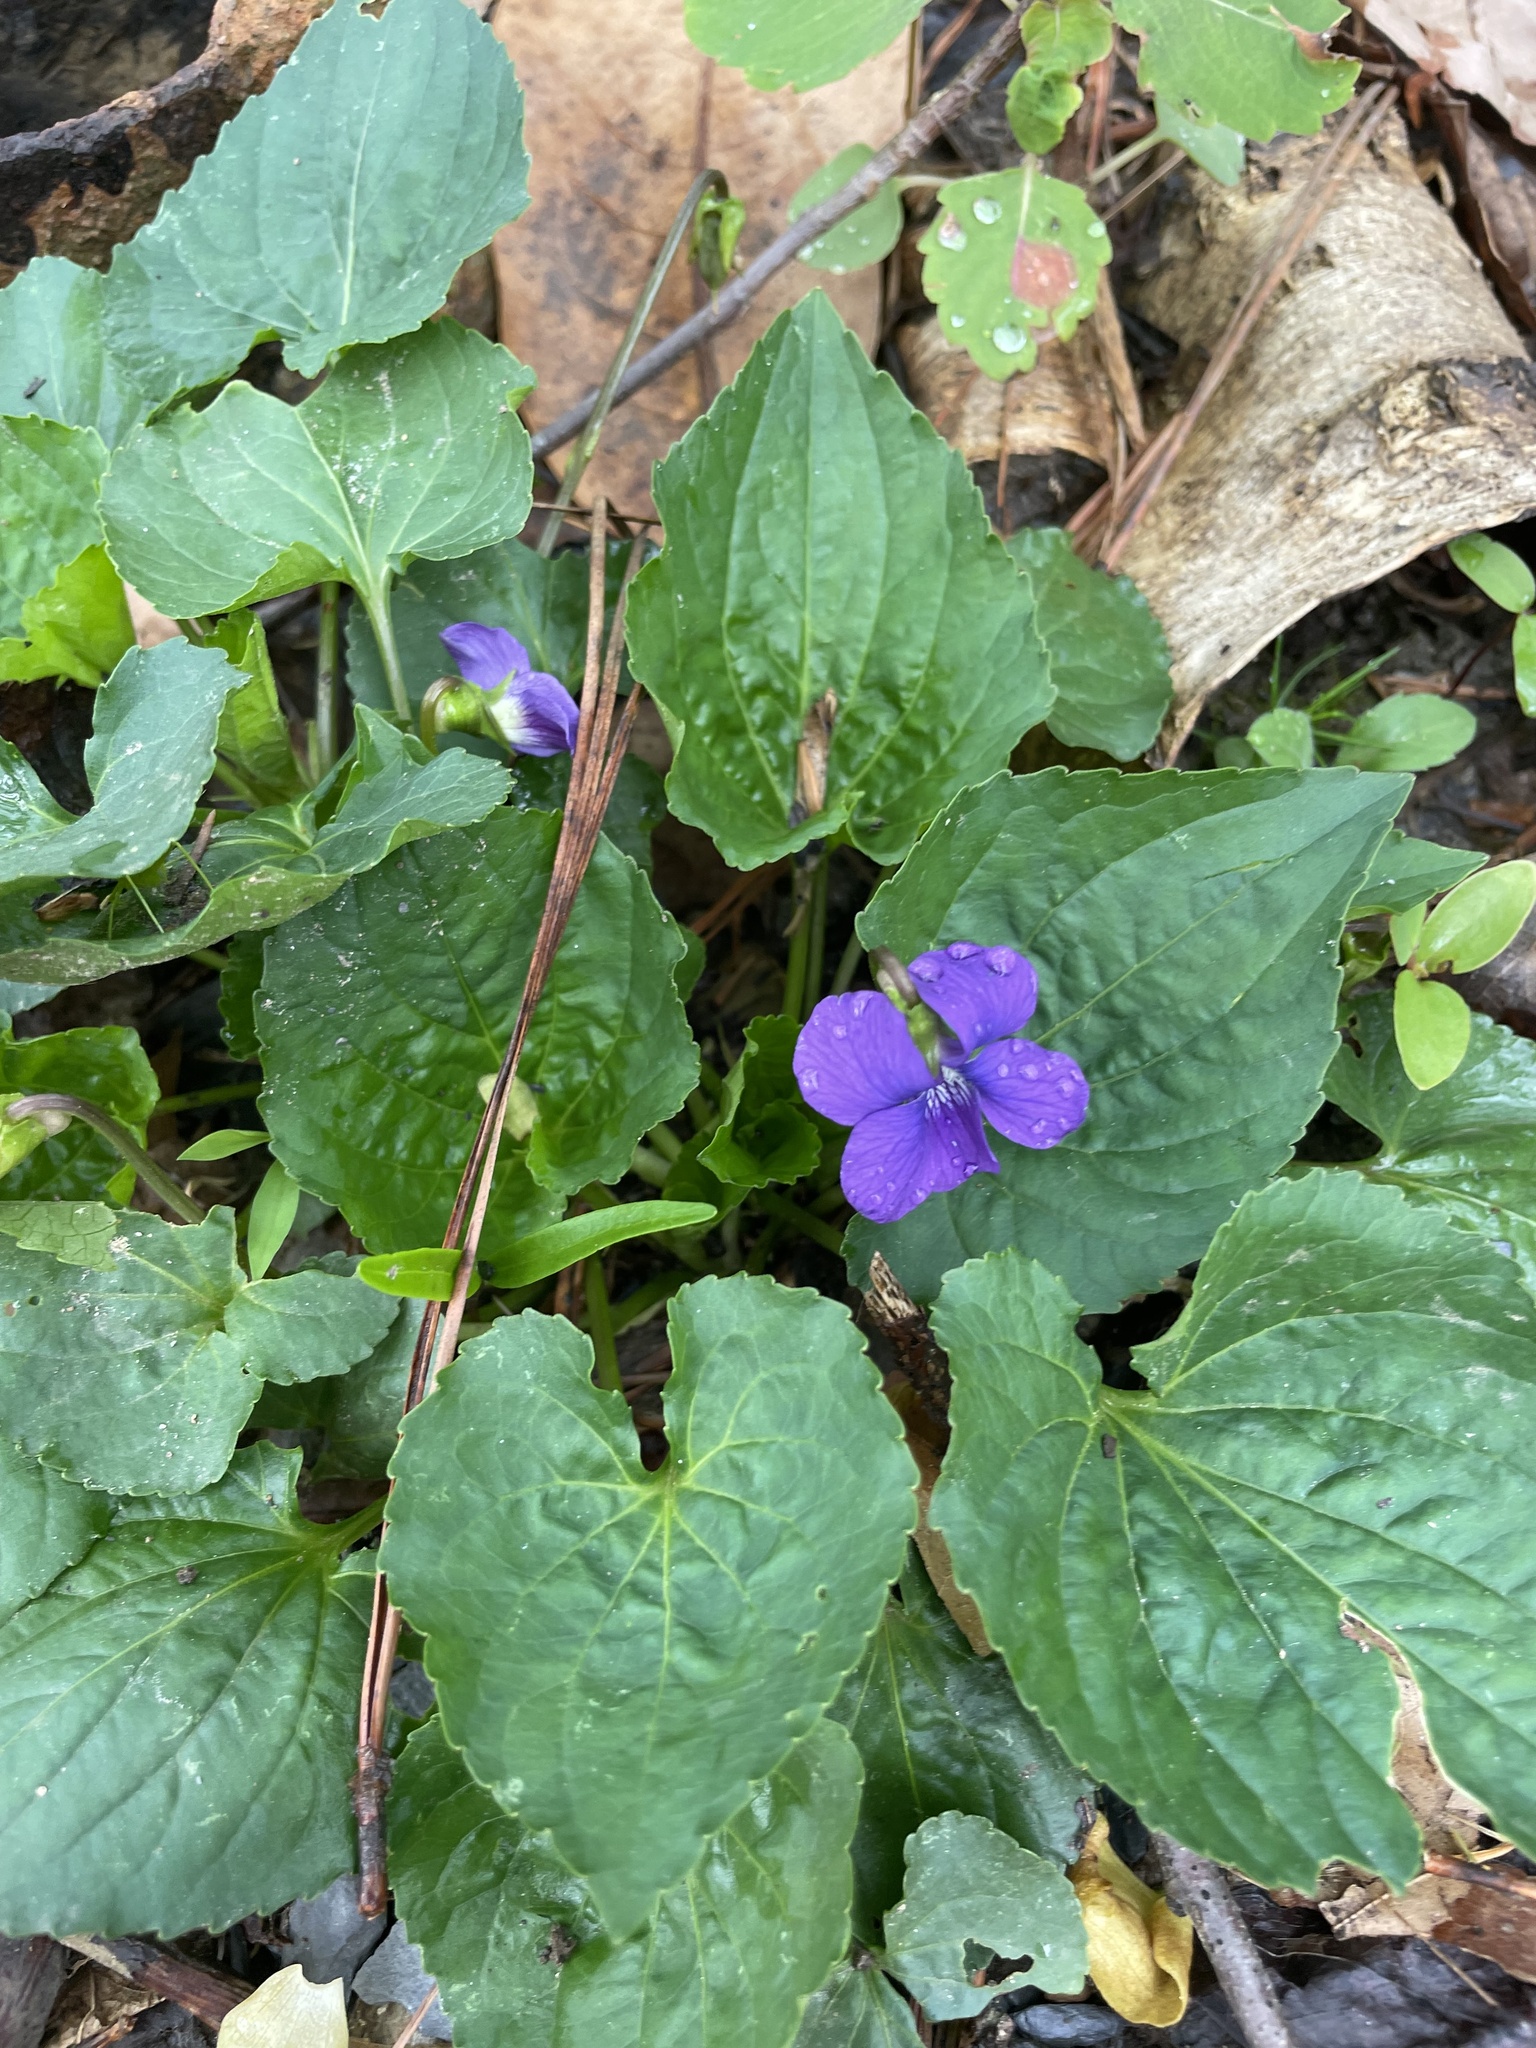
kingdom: Plantae
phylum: Tracheophyta
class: Magnoliopsida
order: Malpighiales
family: Violaceae
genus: Viola
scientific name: Viola sororia
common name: Dooryard violet
